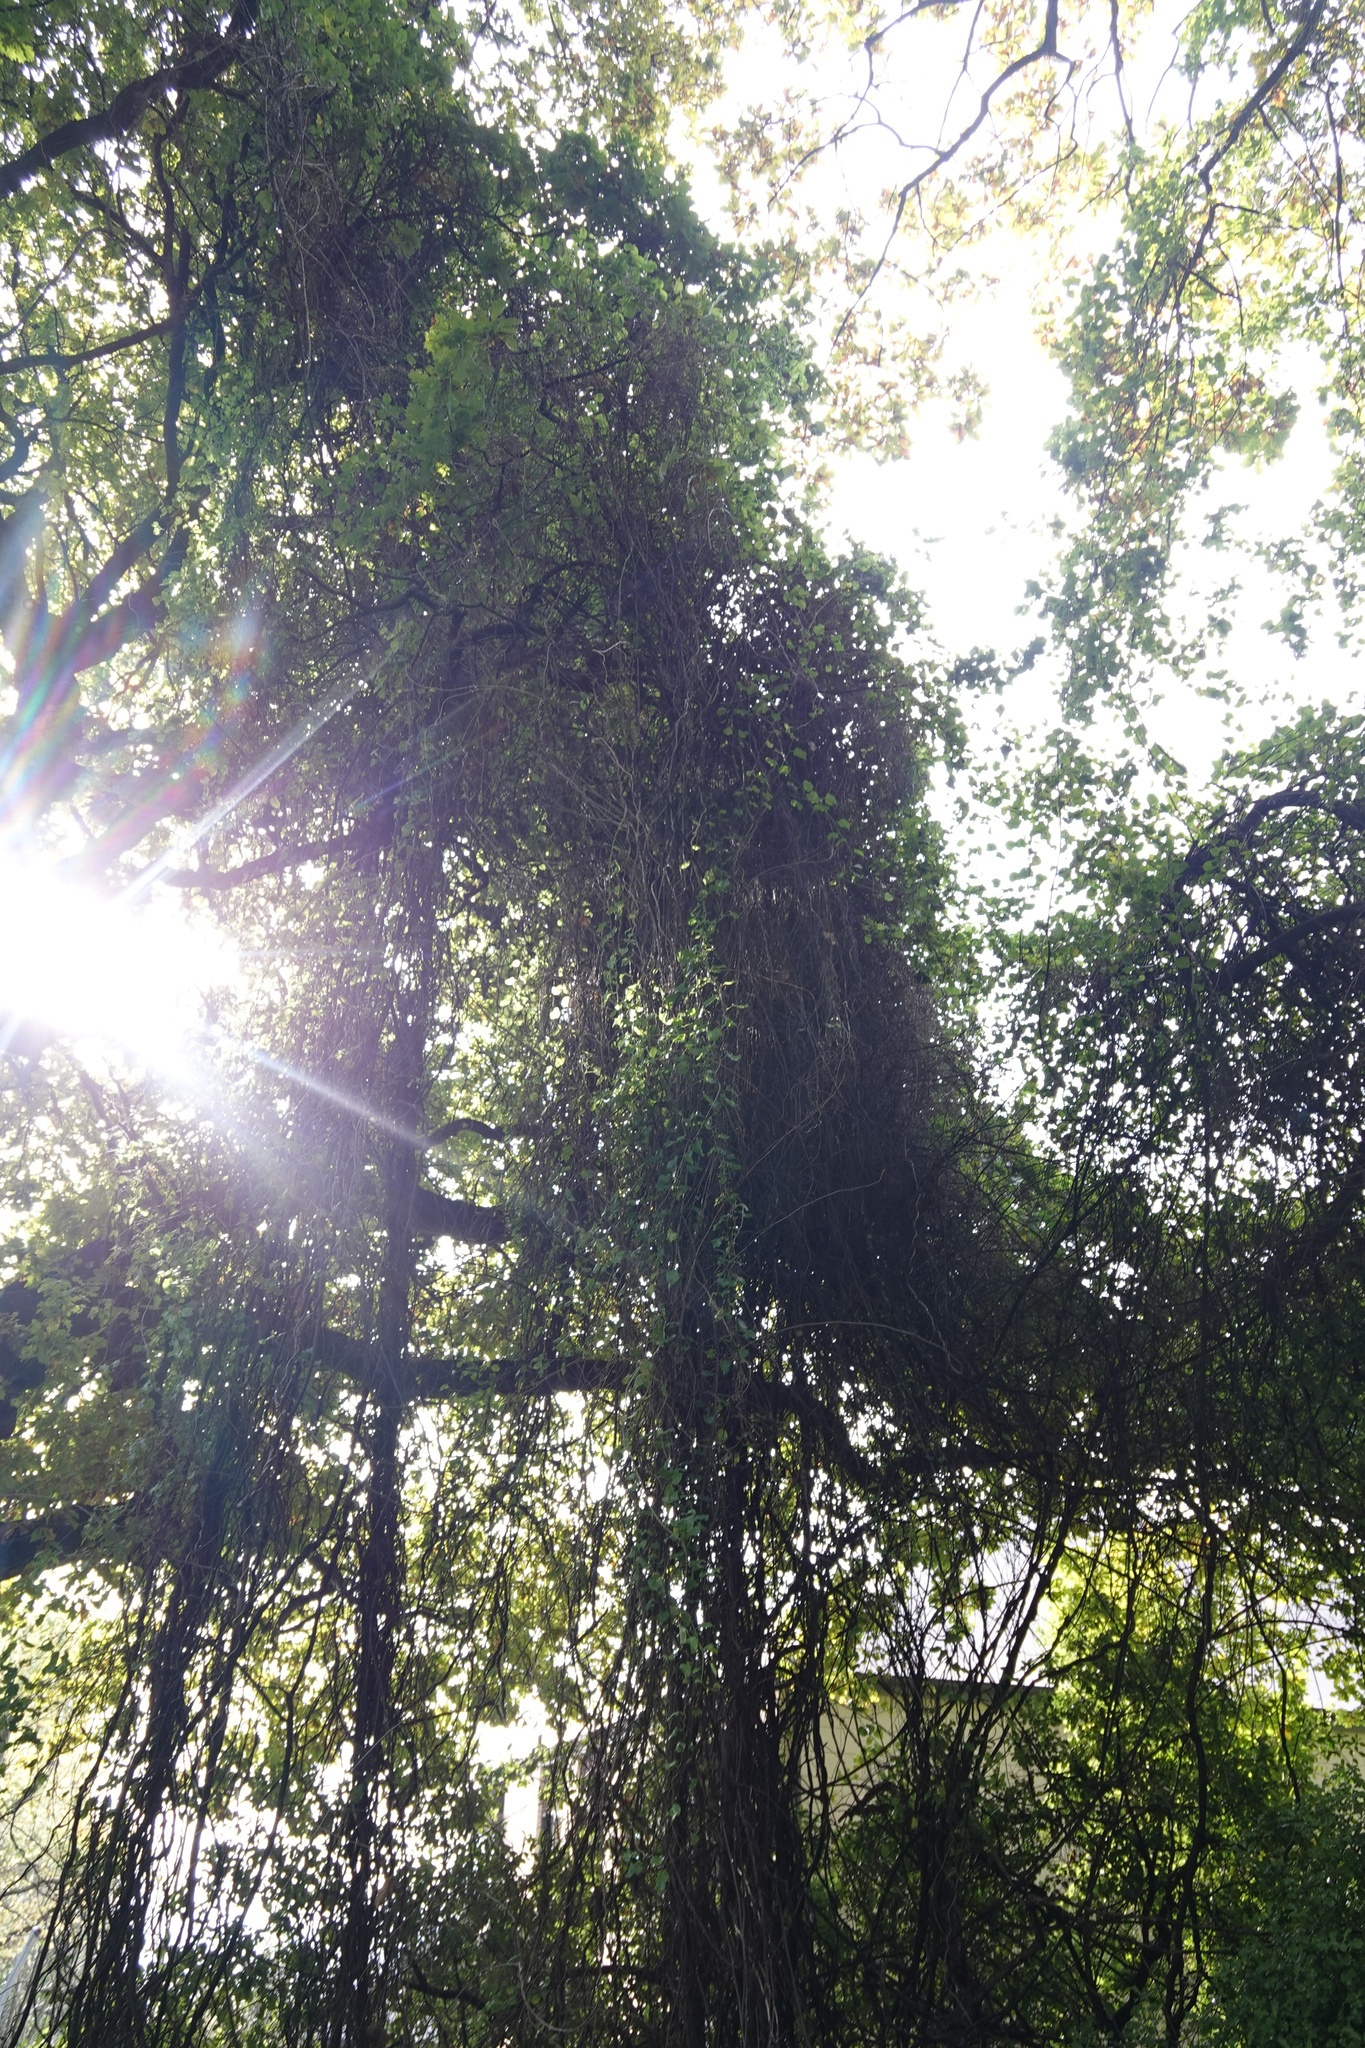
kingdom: Plantae
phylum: Tracheophyta
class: Magnoliopsida
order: Caryophyllales
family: Polygonaceae
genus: Muehlenbeckia
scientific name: Muehlenbeckia australis
